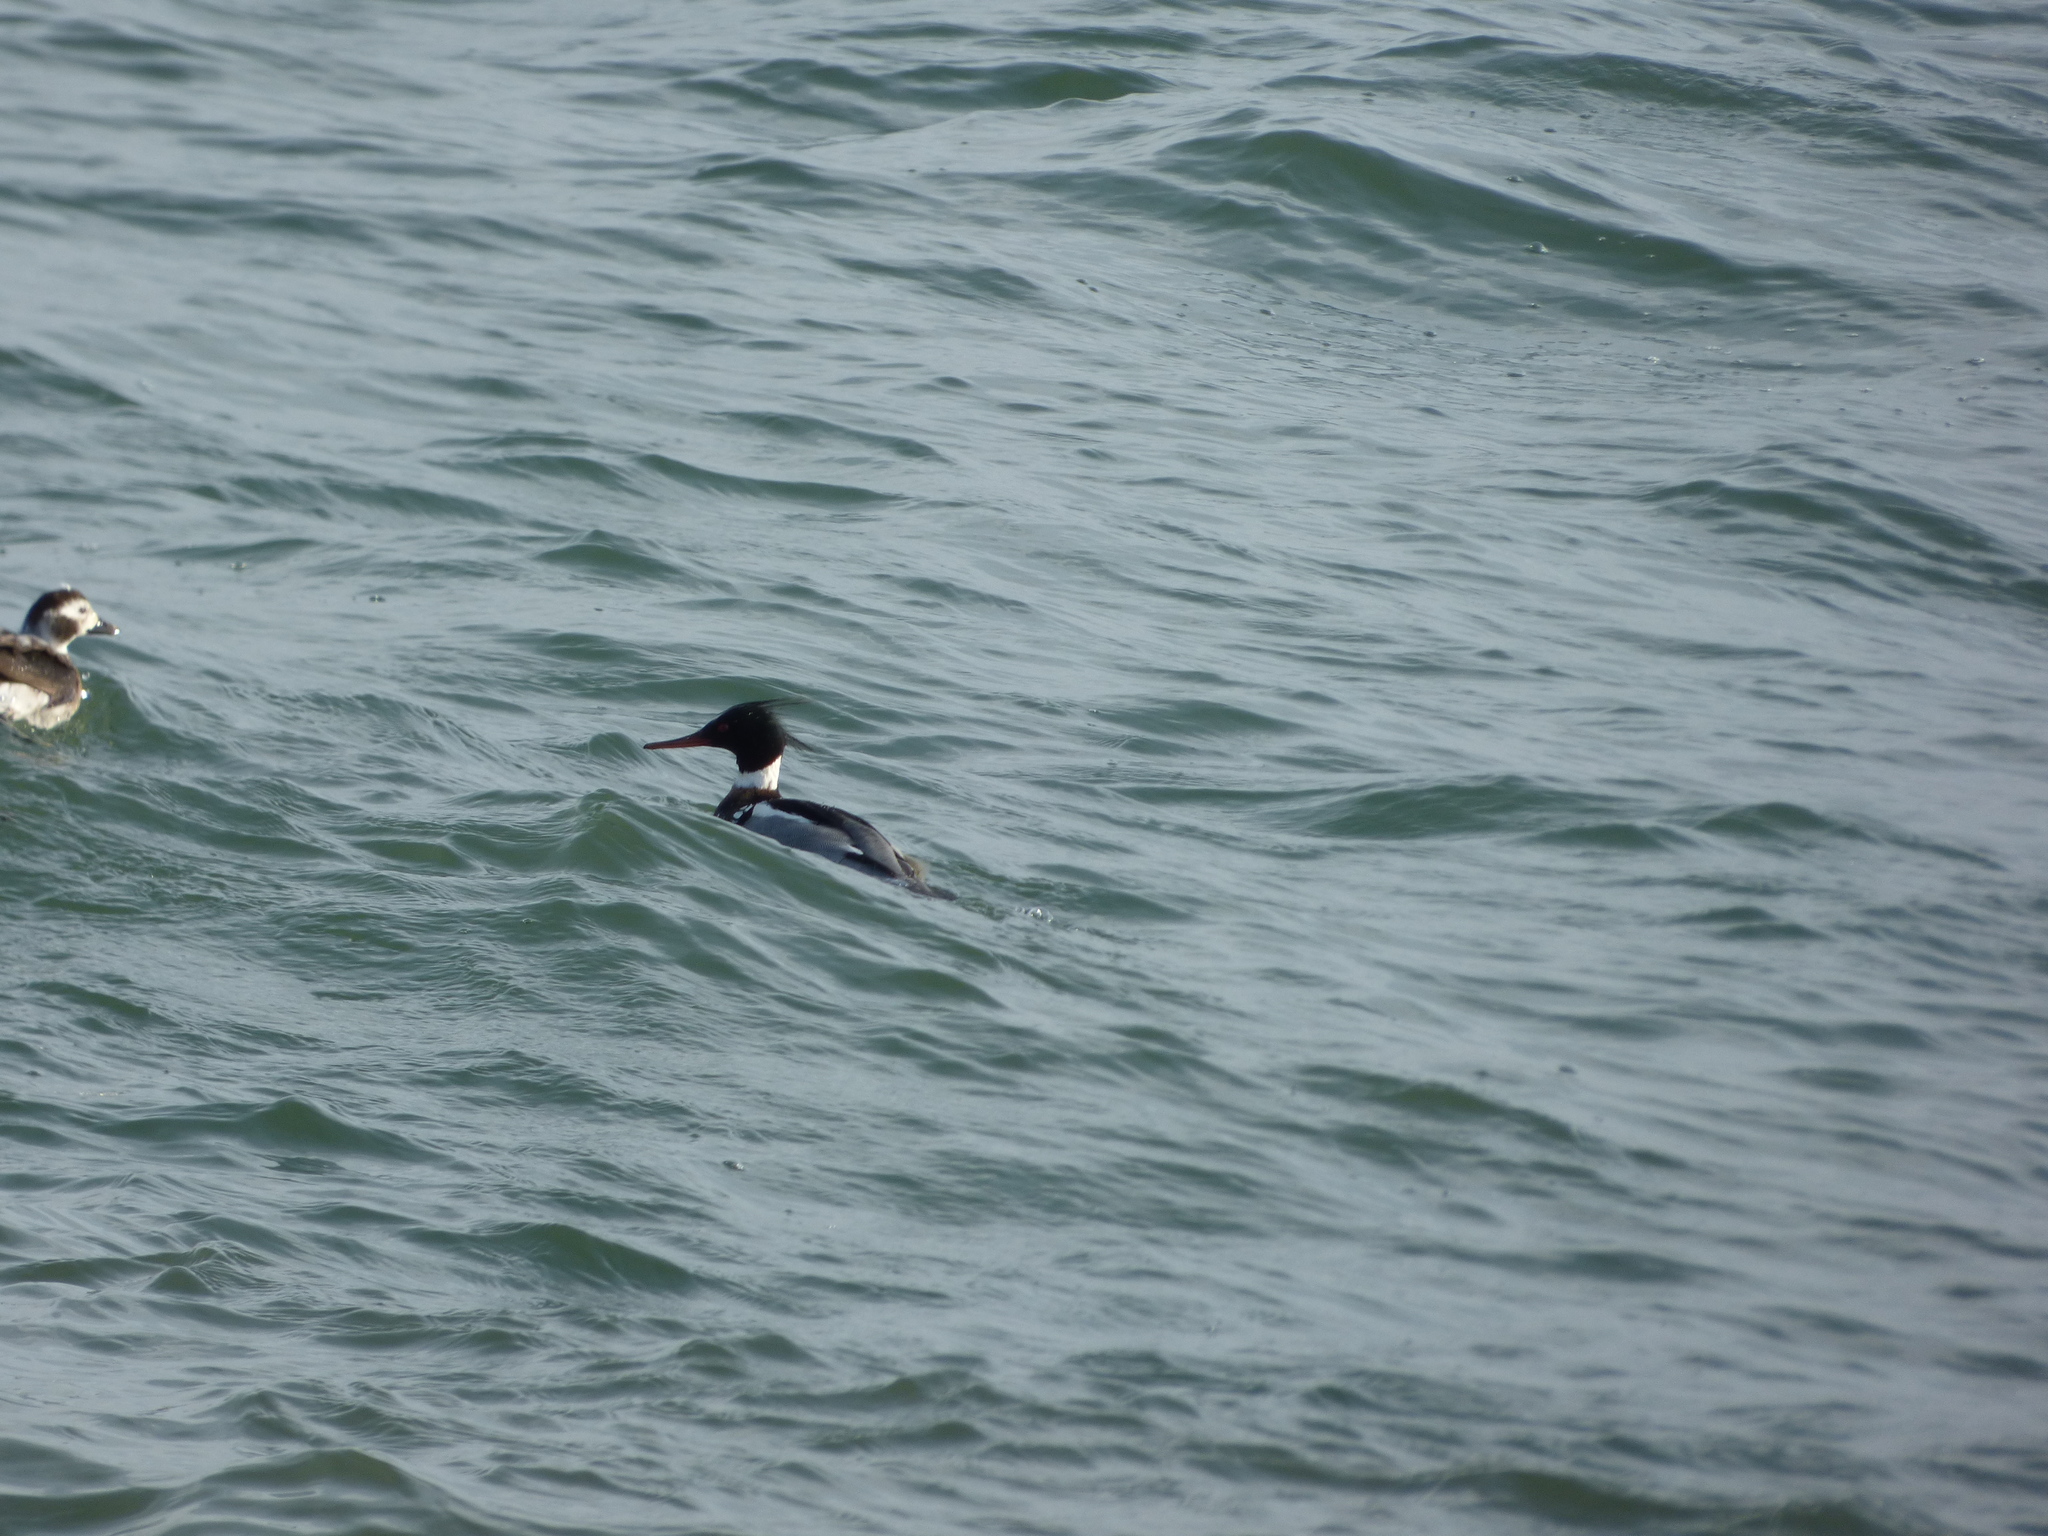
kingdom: Animalia
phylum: Chordata
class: Aves
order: Anseriformes
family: Anatidae
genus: Mergus
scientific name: Mergus serrator
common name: Red-breasted merganser
